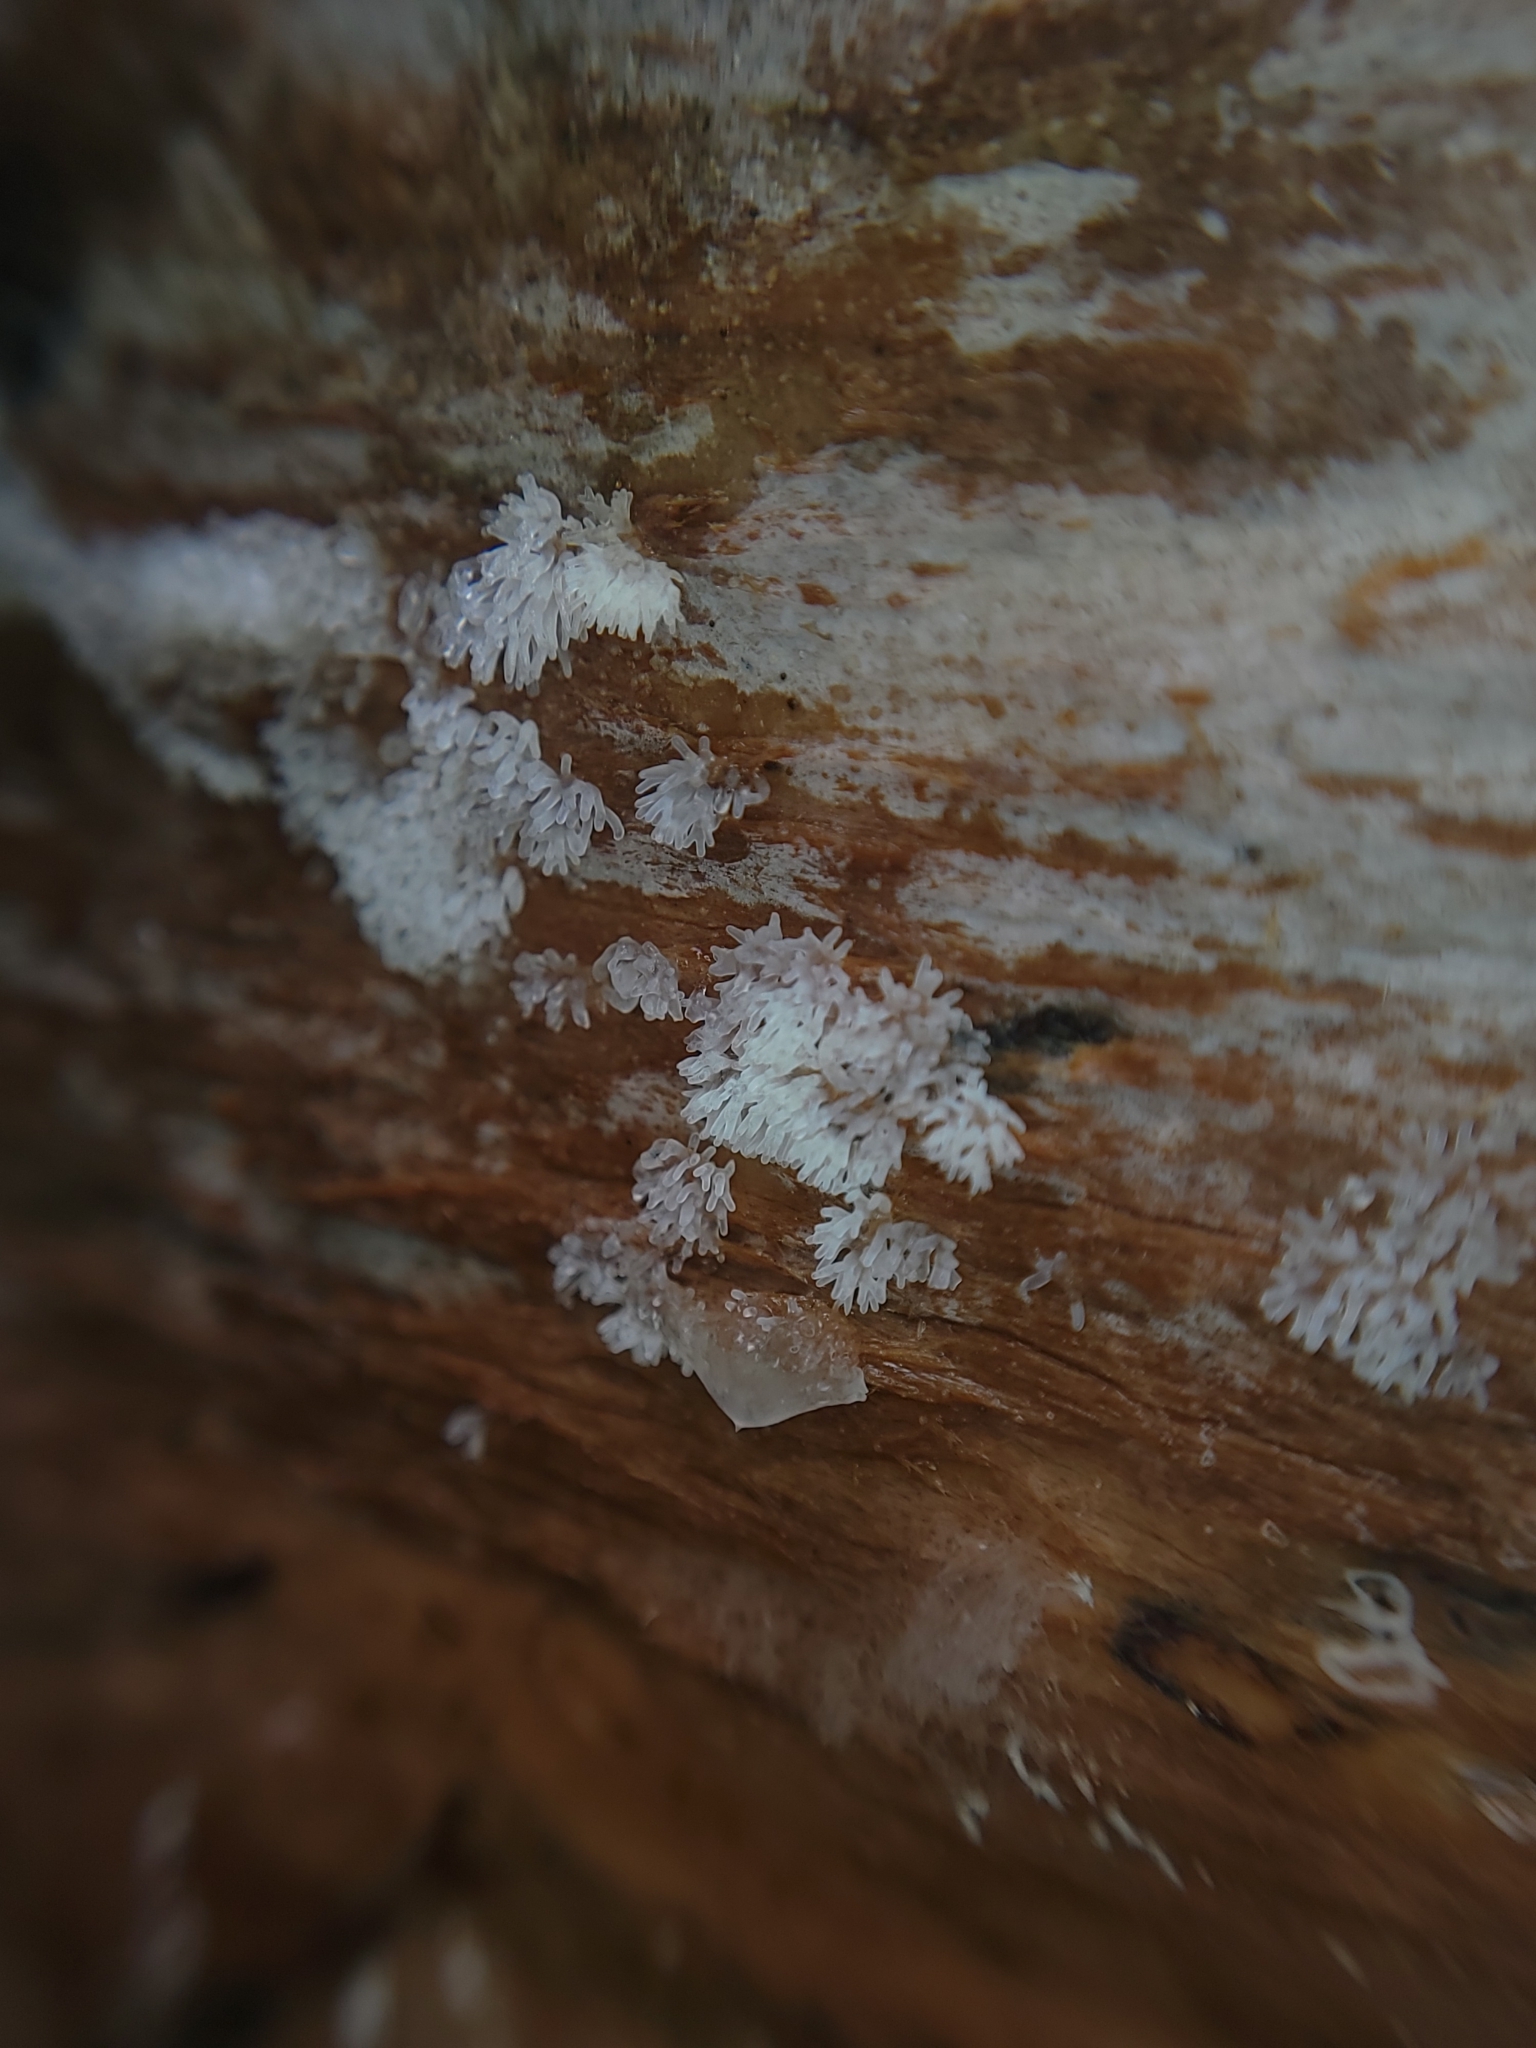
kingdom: Protozoa
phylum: Mycetozoa
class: Protosteliomycetes
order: Ceratiomyxales
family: Ceratiomyxaceae
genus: Ceratiomyxa
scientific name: Ceratiomyxa fruticulosa
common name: Honeycomb coral slime mold
